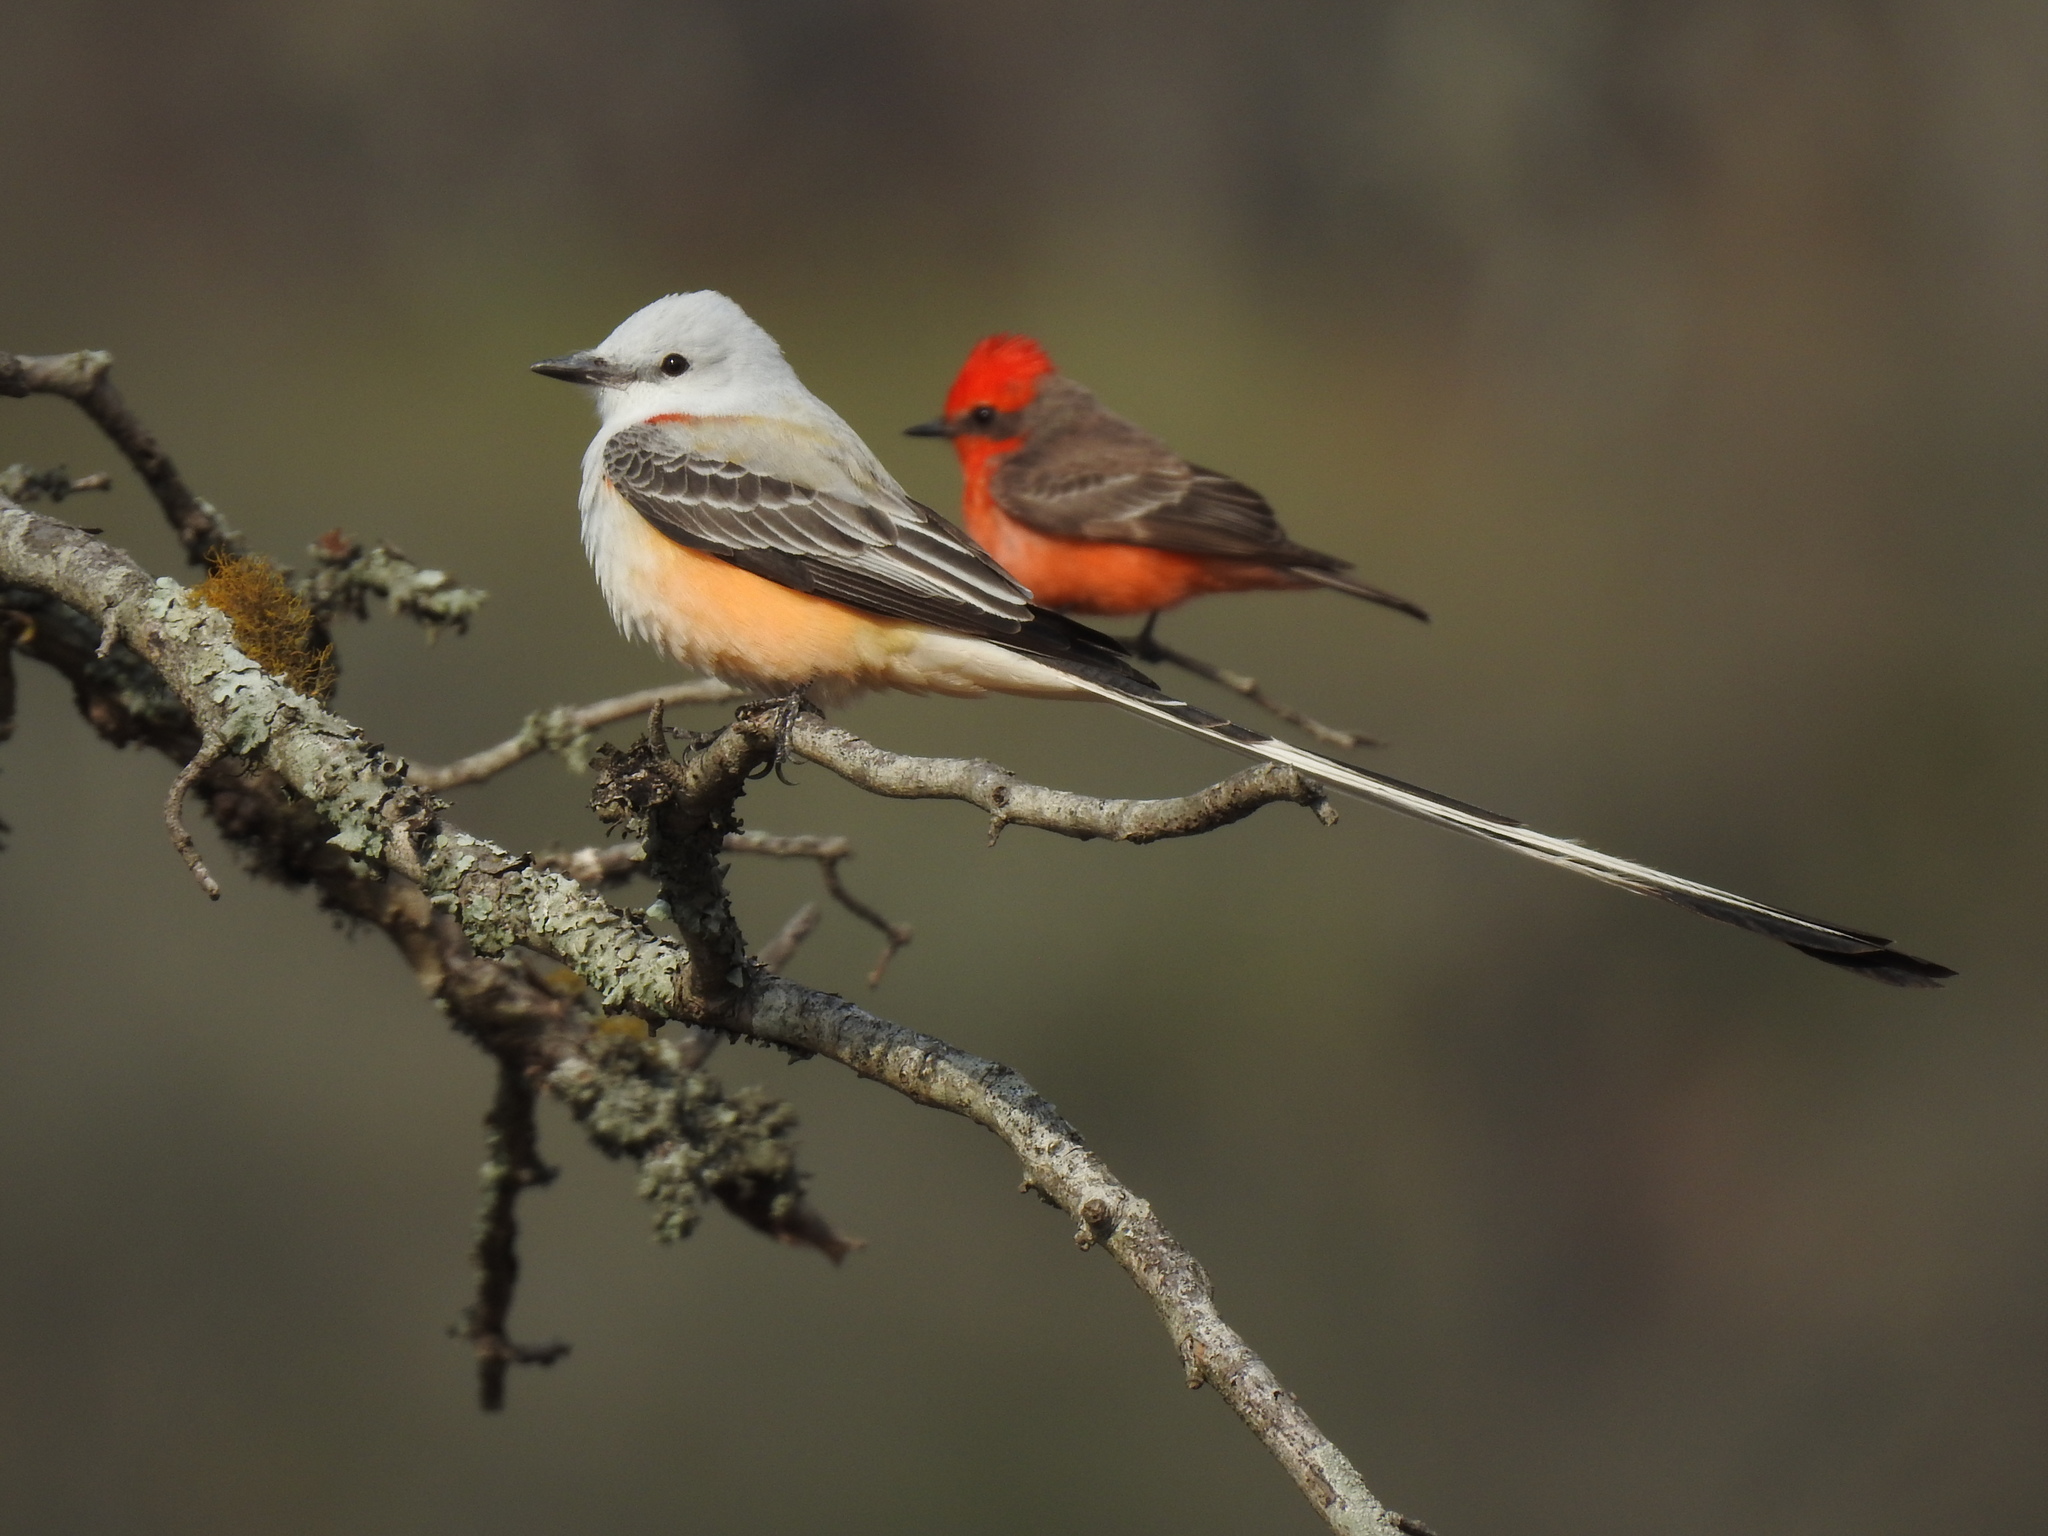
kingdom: Animalia
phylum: Chordata
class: Aves
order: Passeriformes
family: Tyrannidae
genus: Tyrannus
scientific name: Tyrannus forficatus
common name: Scissor-tailed flycatcher
